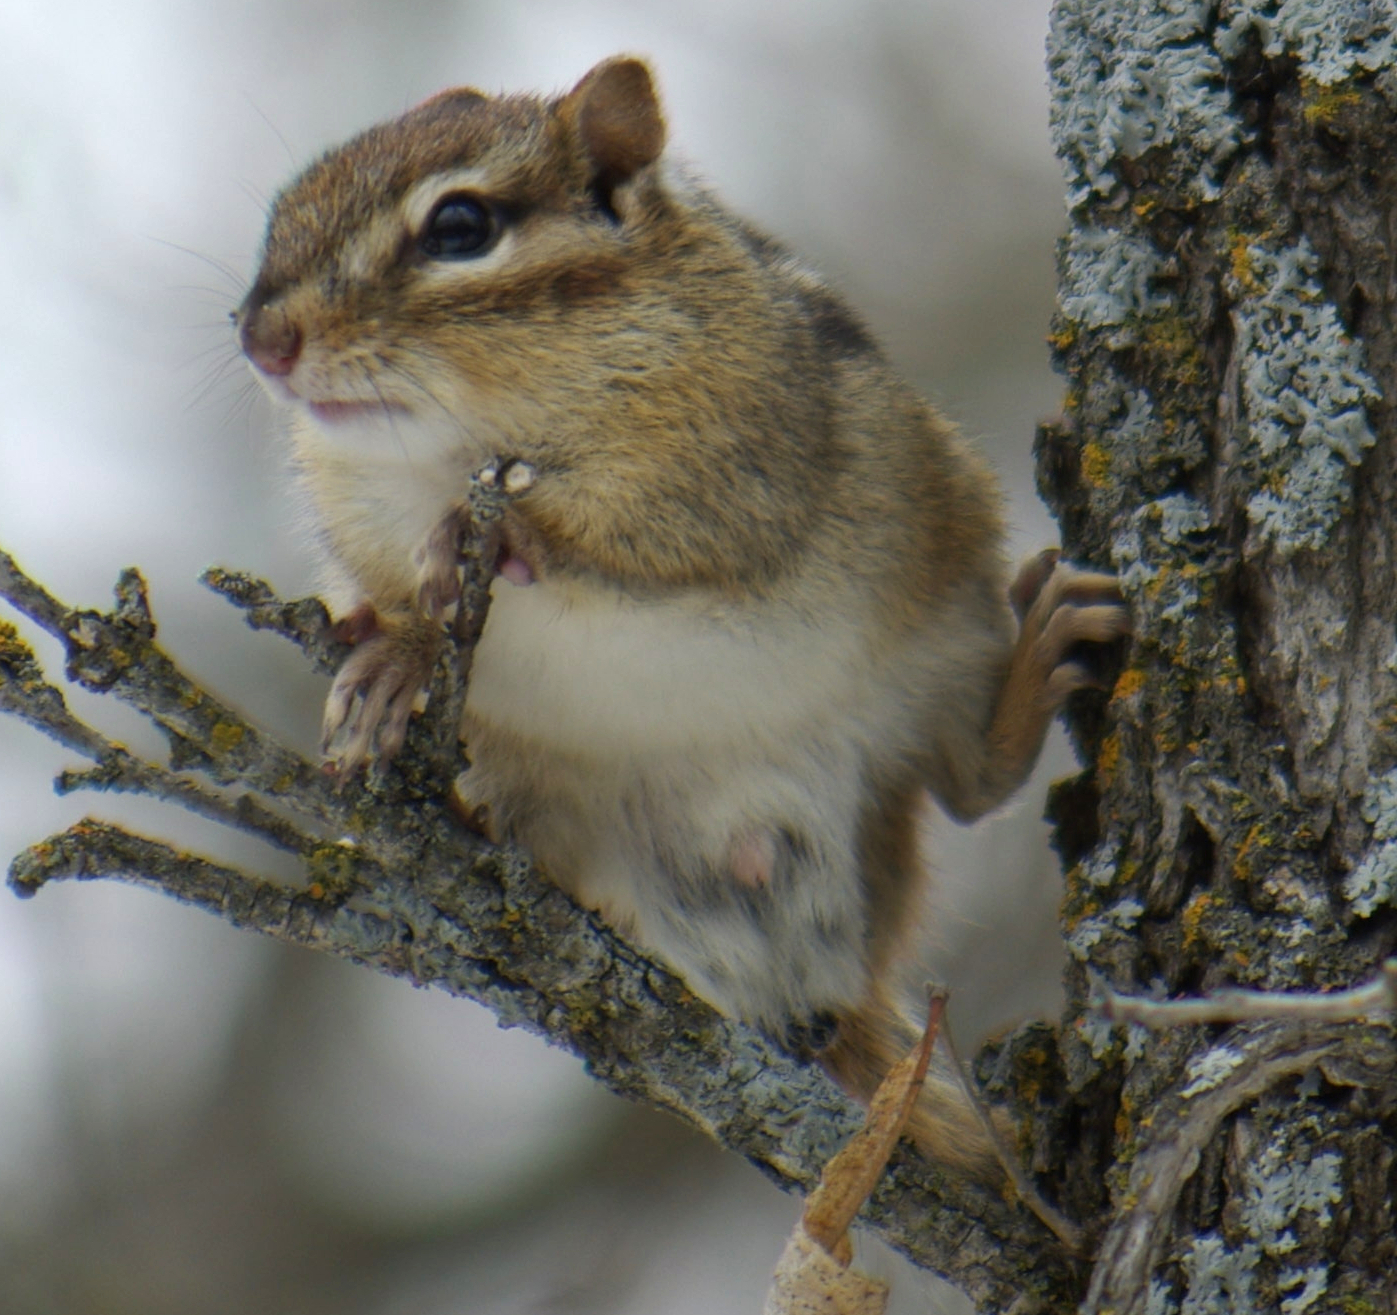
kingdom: Animalia
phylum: Chordata
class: Mammalia
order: Rodentia
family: Sciuridae
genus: Tamias
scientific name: Tamias striatus
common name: Eastern chipmunk
